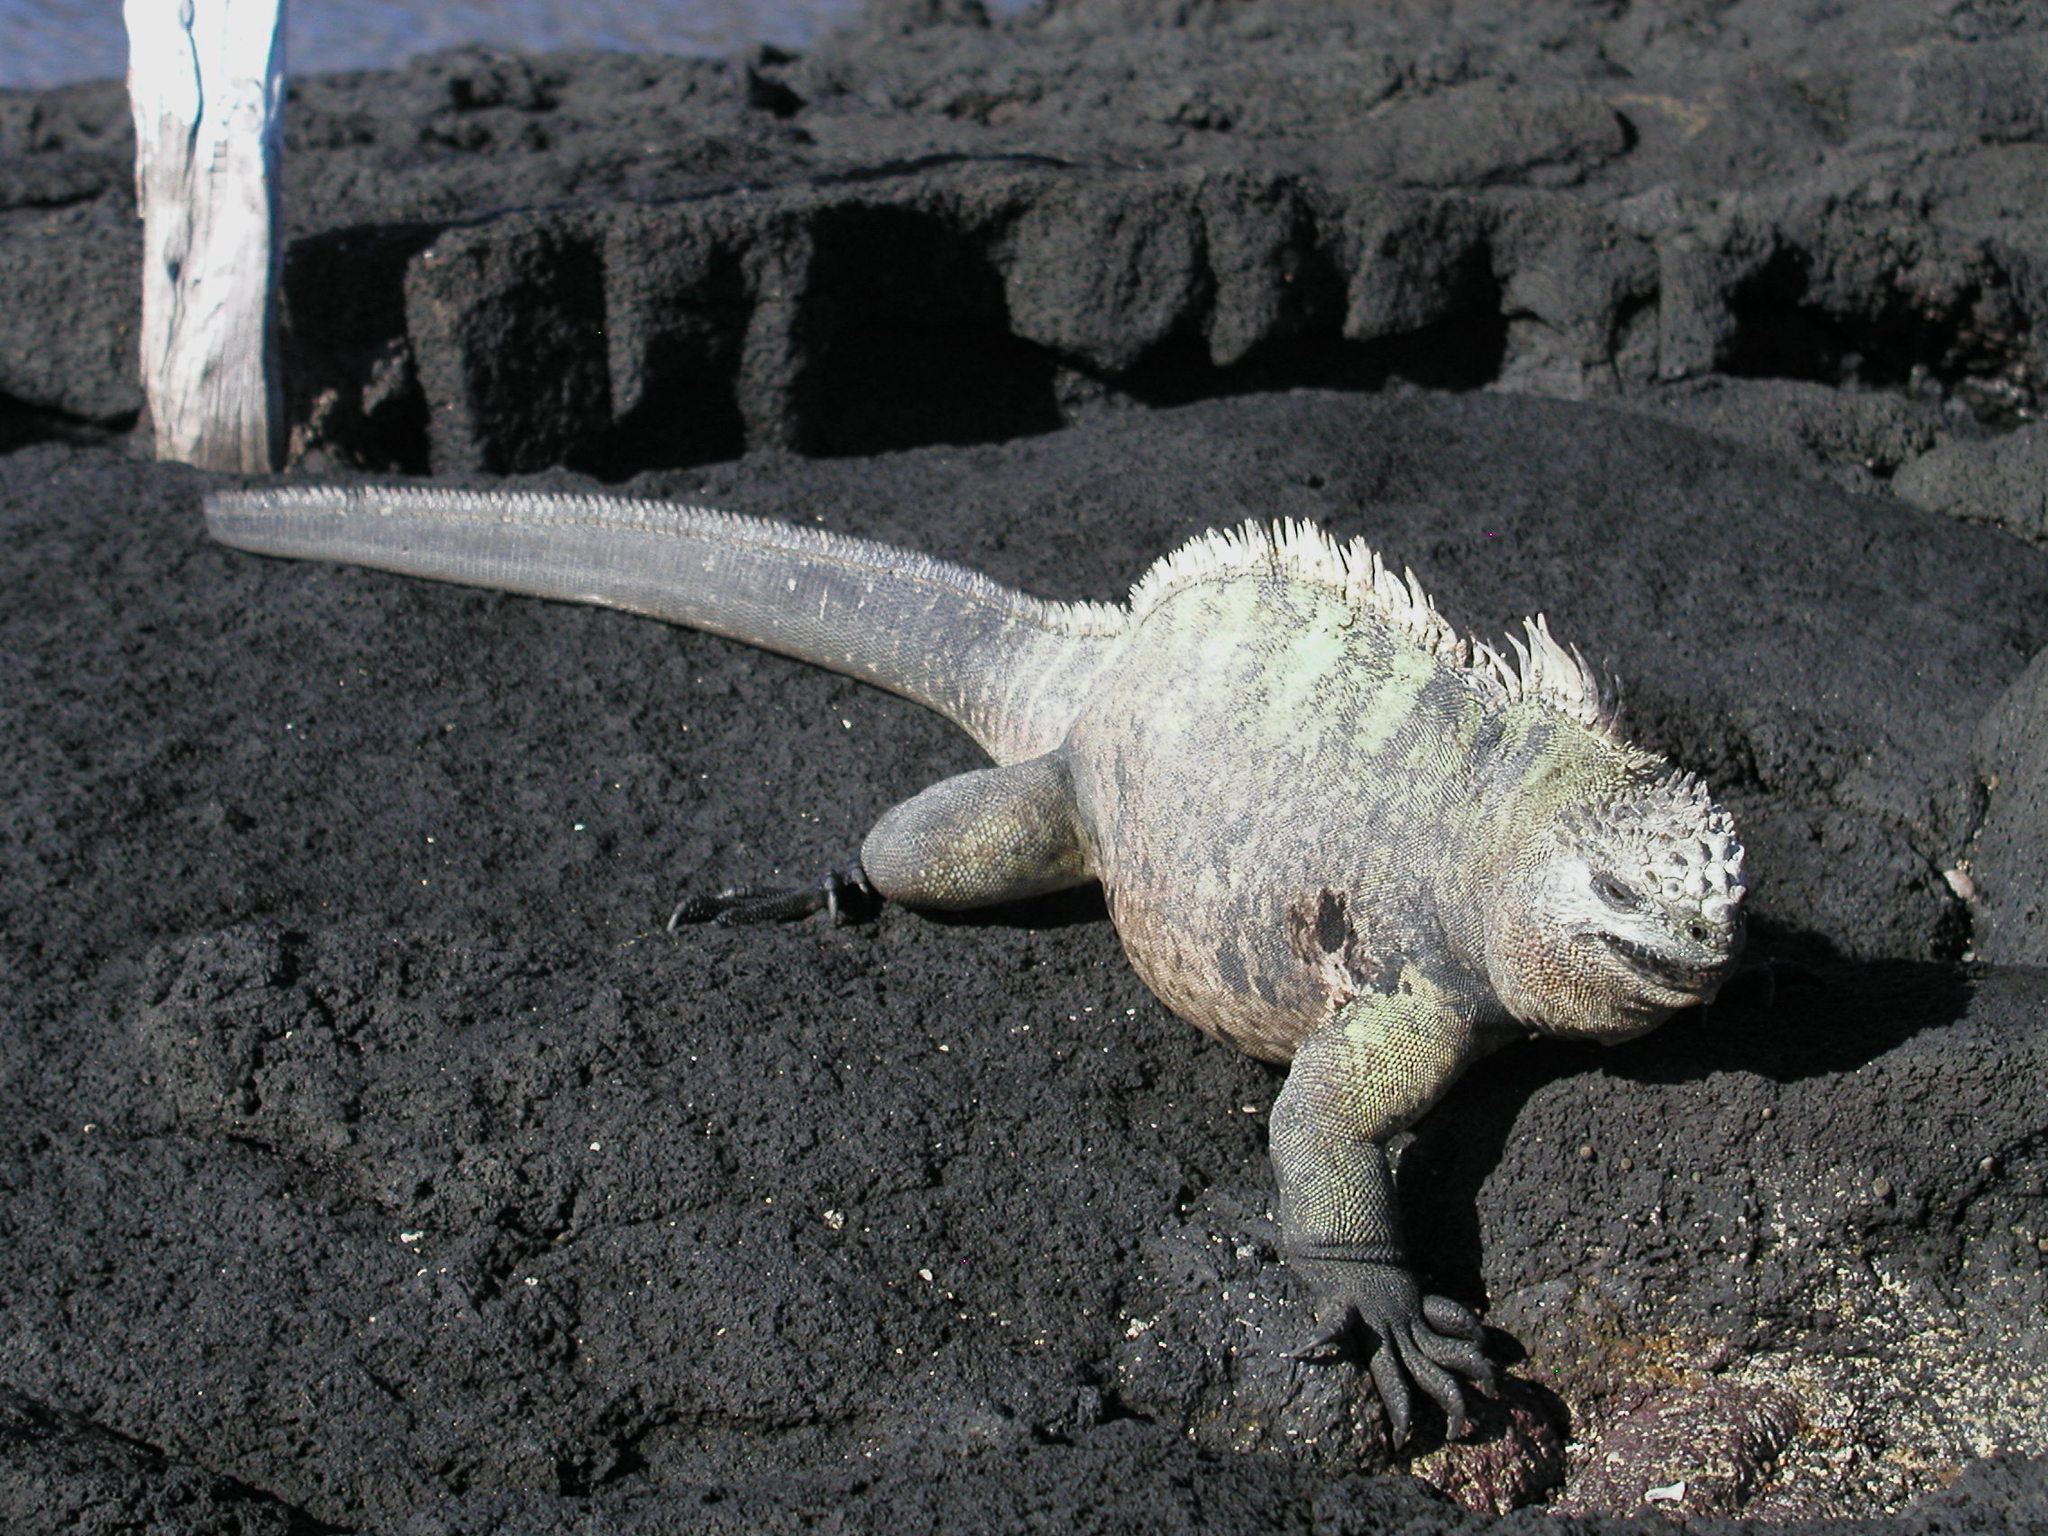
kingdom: Animalia
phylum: Chordata
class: Squamata
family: Iguanidae
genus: Amblyrhynchus
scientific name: Amblyrhynchus cristatus
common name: Marine iguana
